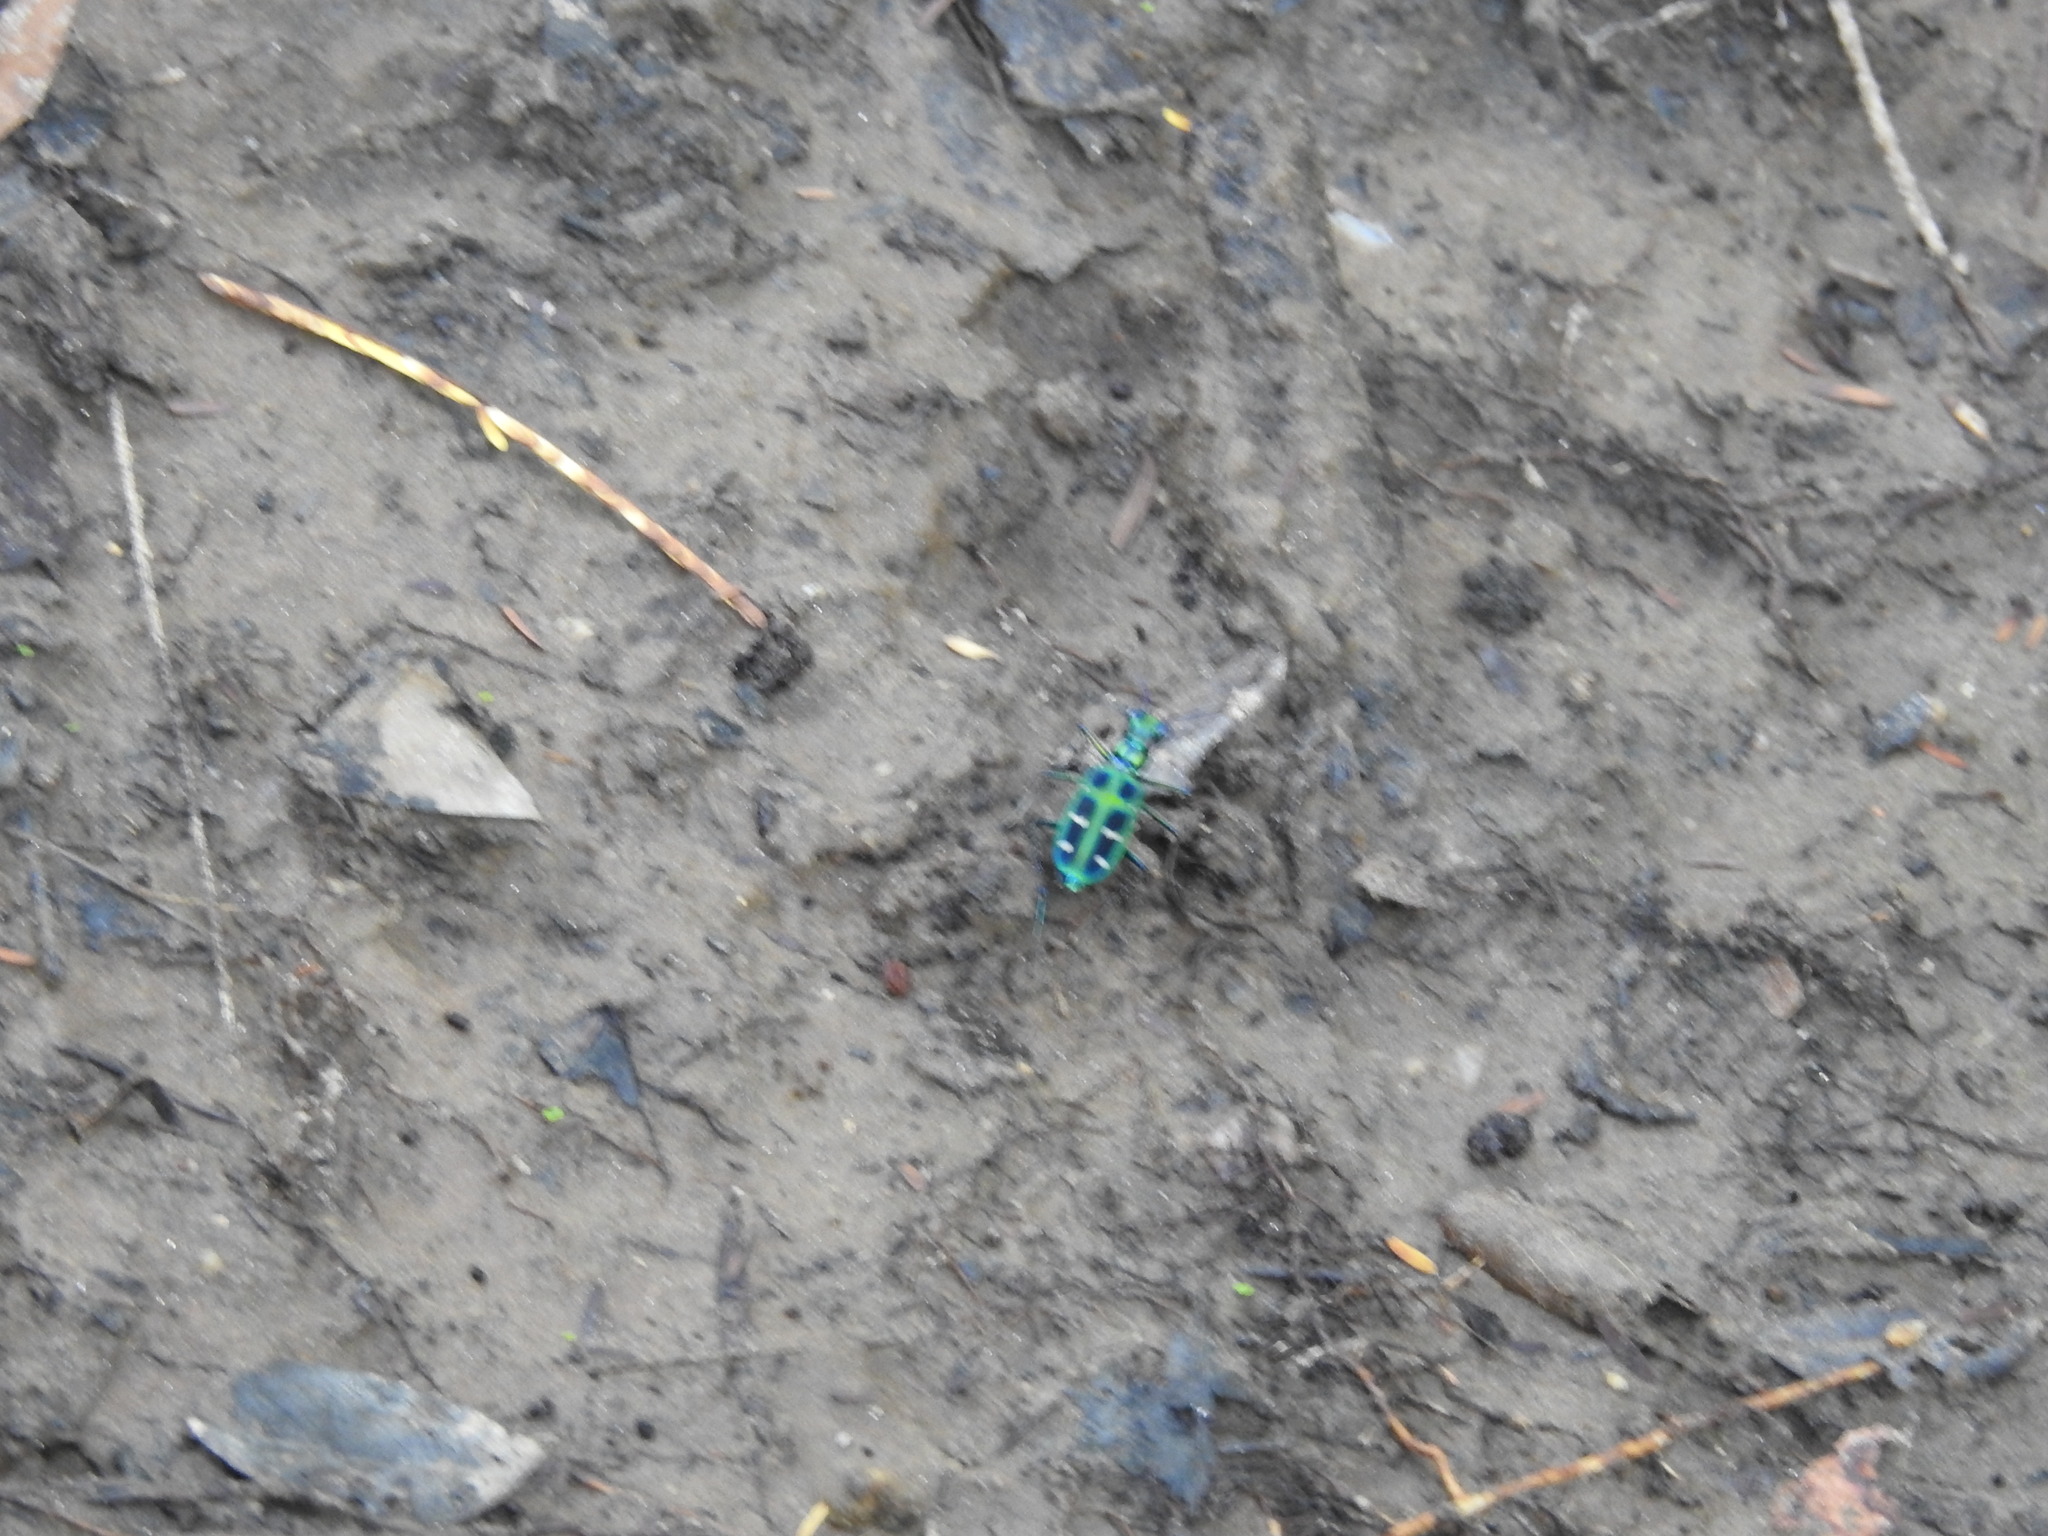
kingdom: Animalia
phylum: Arthropoda
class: Insecta
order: Coleoptera
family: Carabidae
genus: Cicindela
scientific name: Cicindela barmanica
